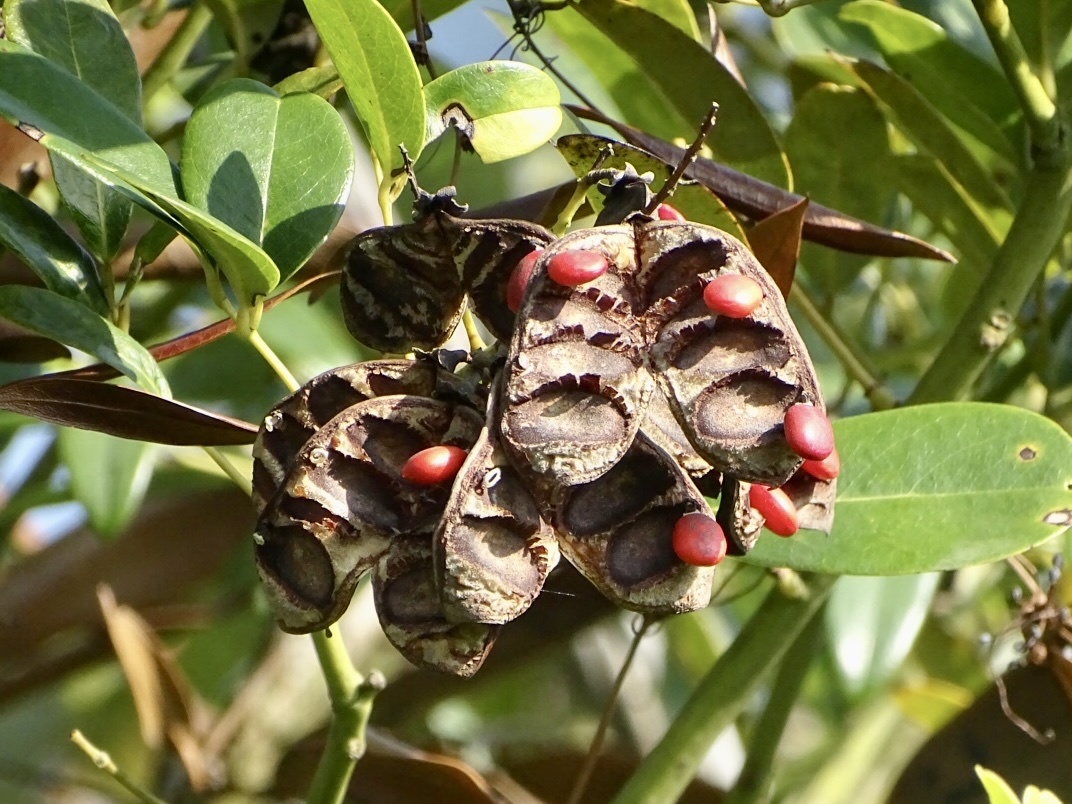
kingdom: Plantae
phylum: Tracheophyta
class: Magnoliopsida
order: Fabales
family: Fabaceae
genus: Ormosia
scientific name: Ormosia emarginata
